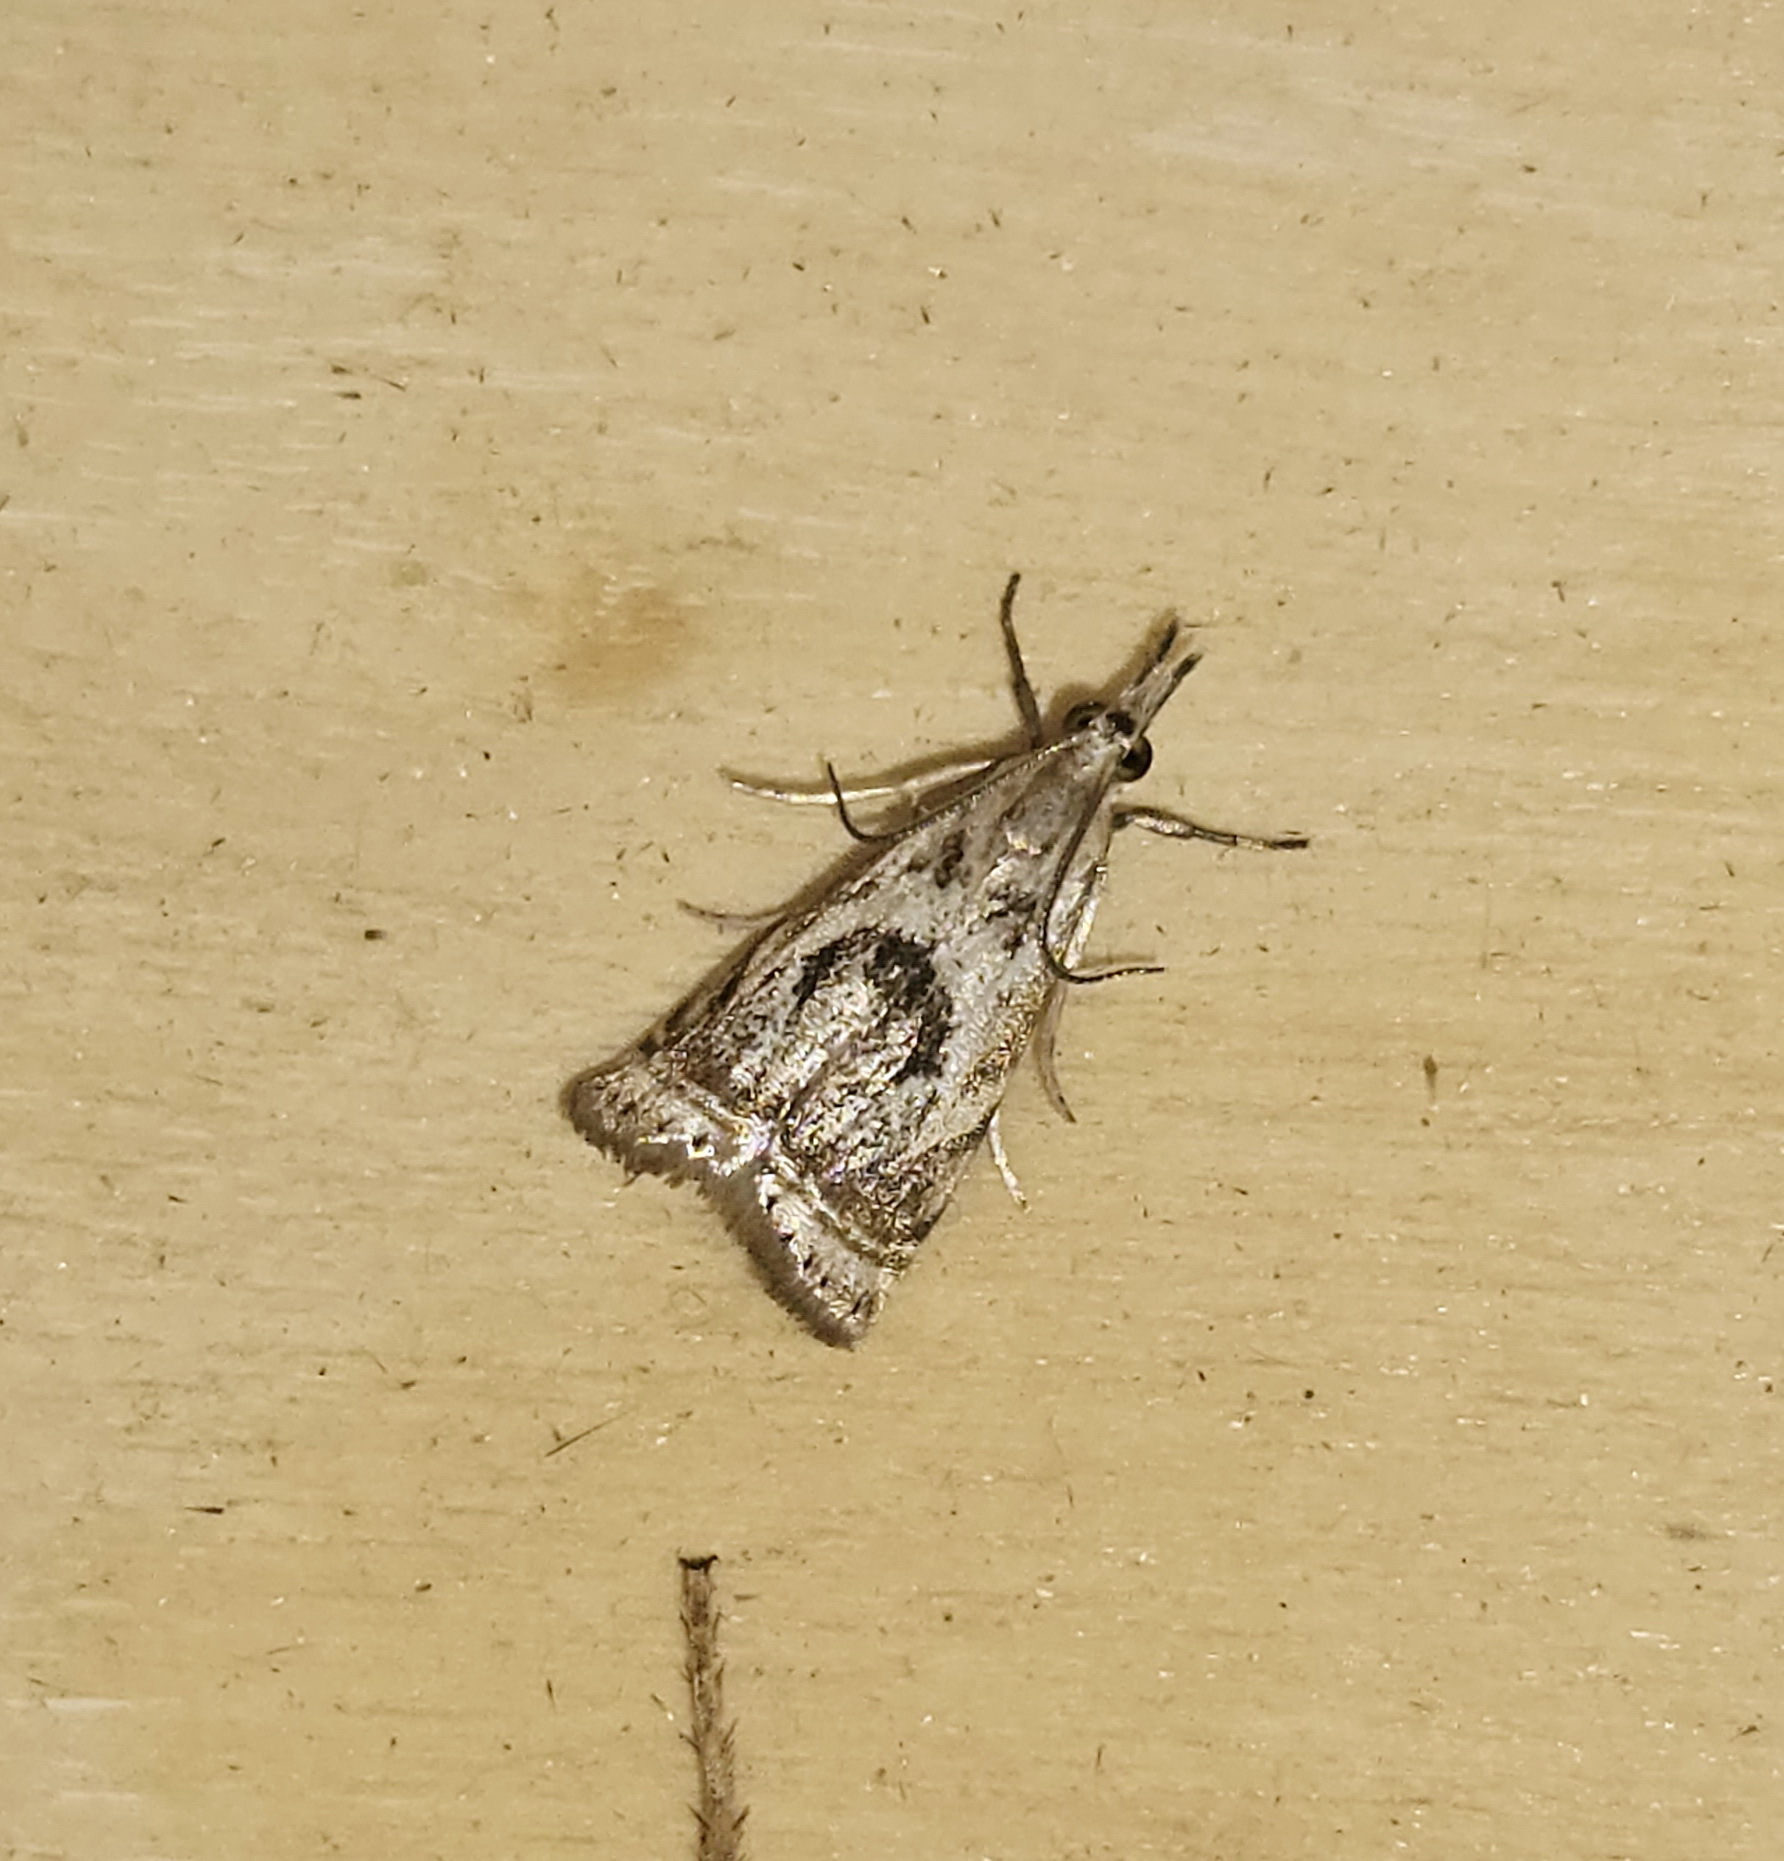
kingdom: Animalia
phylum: Arthropoda
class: Insecta
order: Lepidoptera
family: Crambidae
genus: Microcrambus
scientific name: Microcrambus elegans
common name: Elegant grass-veneer
